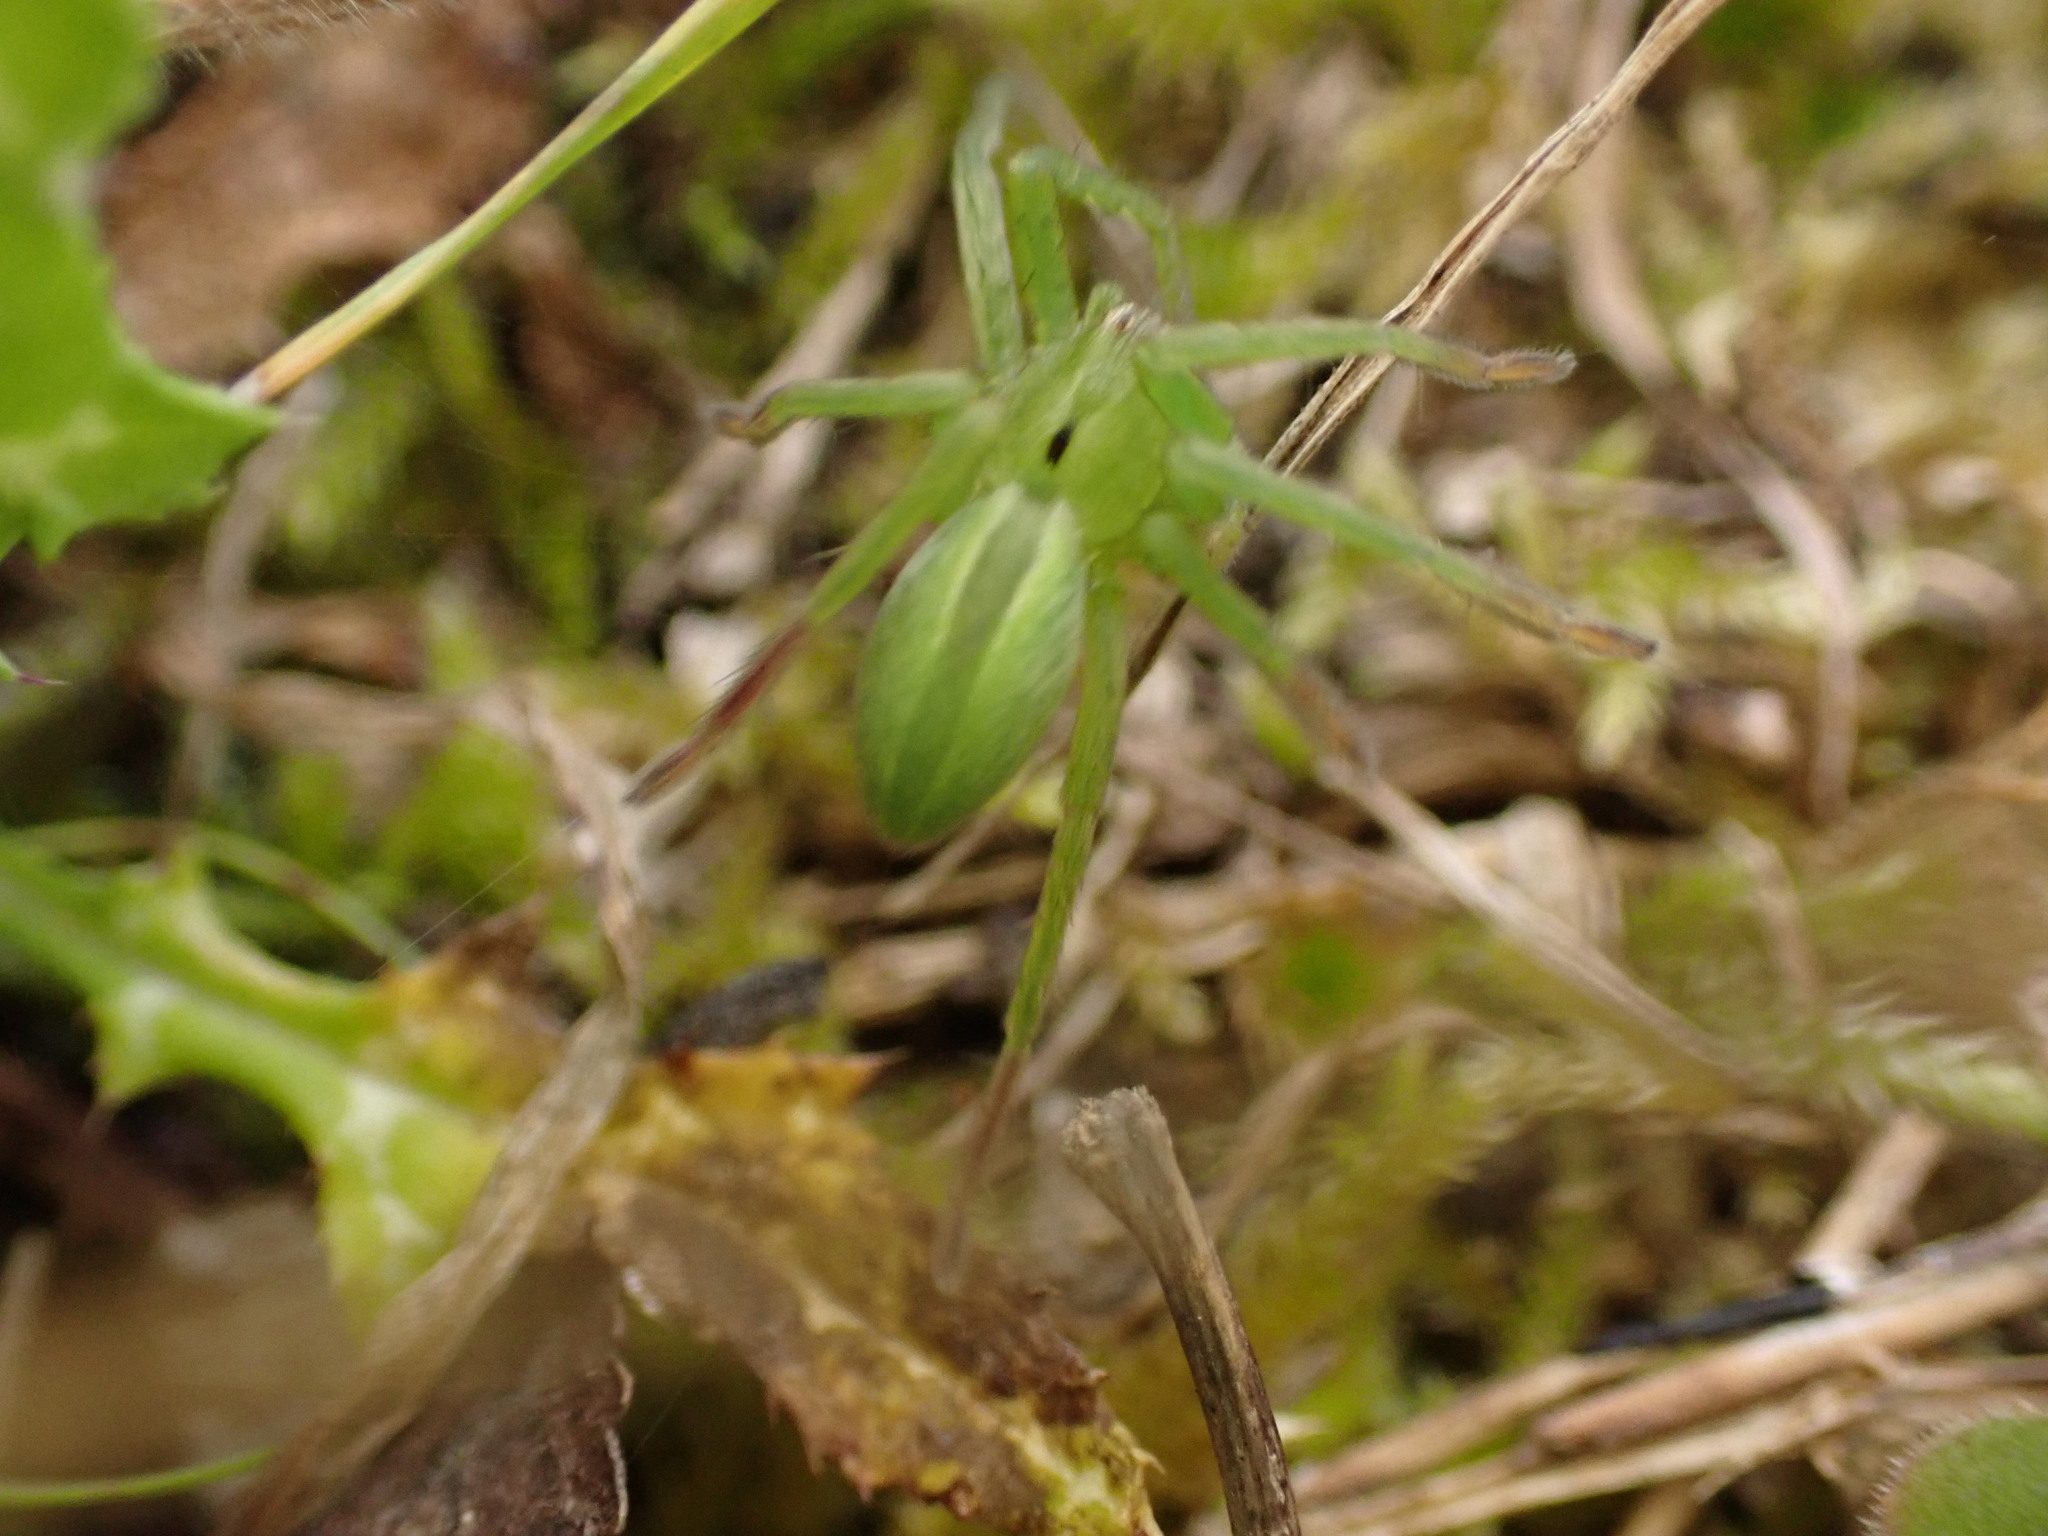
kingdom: Animalia
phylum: Arthropoda
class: Arachnida
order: Araneae
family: Sparassidae
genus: Micrommata
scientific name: Micrommata ligurina
